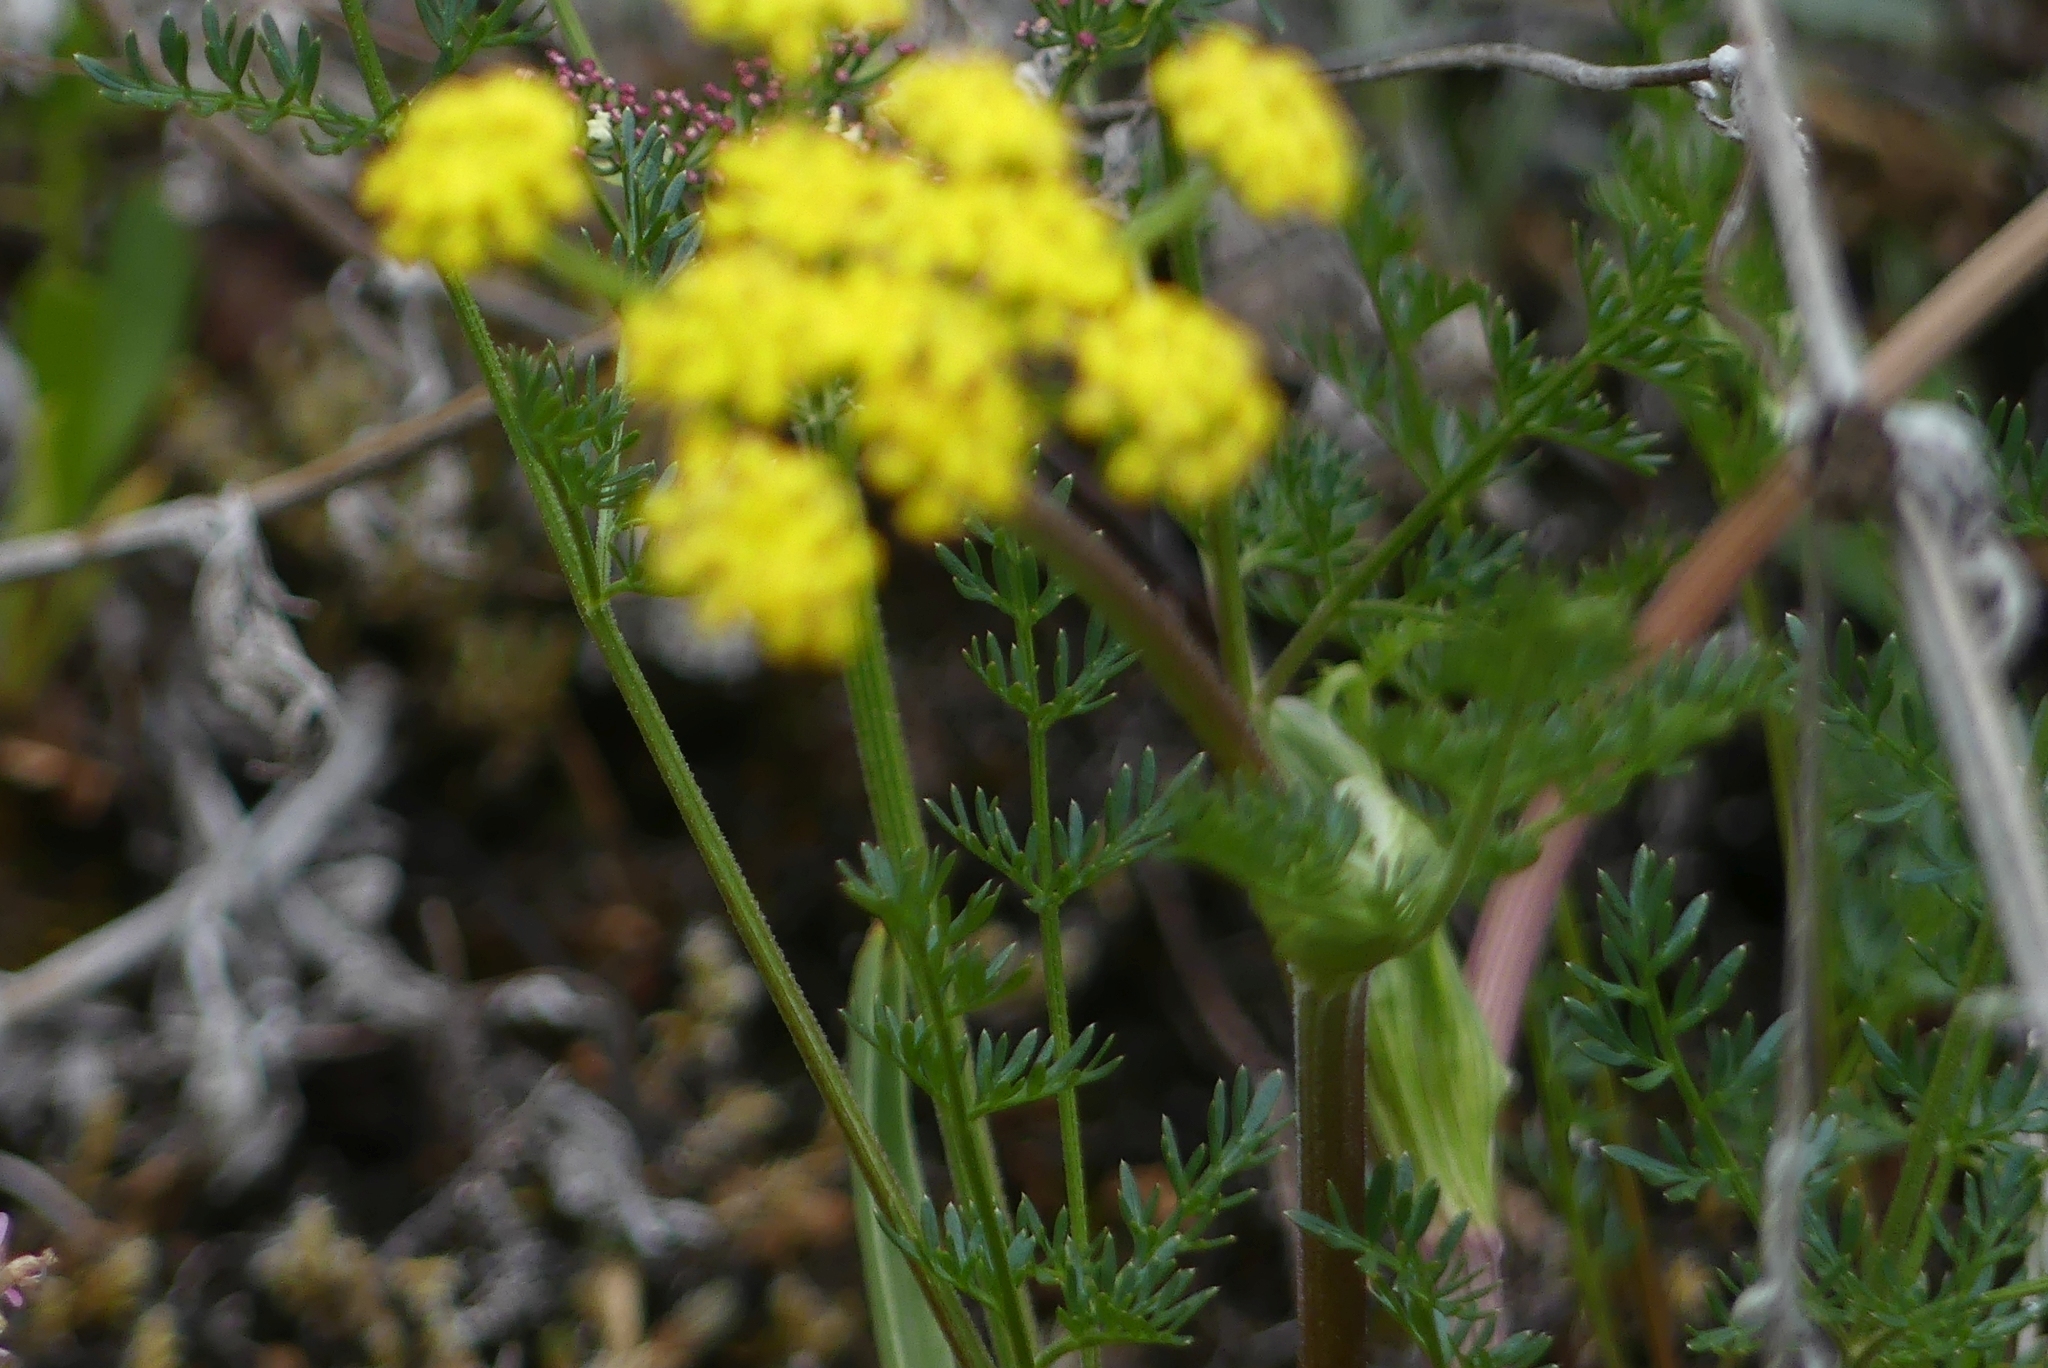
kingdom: Plantae
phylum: Tracheophyta
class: Magnoliopsida
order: Apiales
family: Apiaceae
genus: Lomatium
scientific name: Lomatium utriculatum
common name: Fine-leaf desert-parsley
